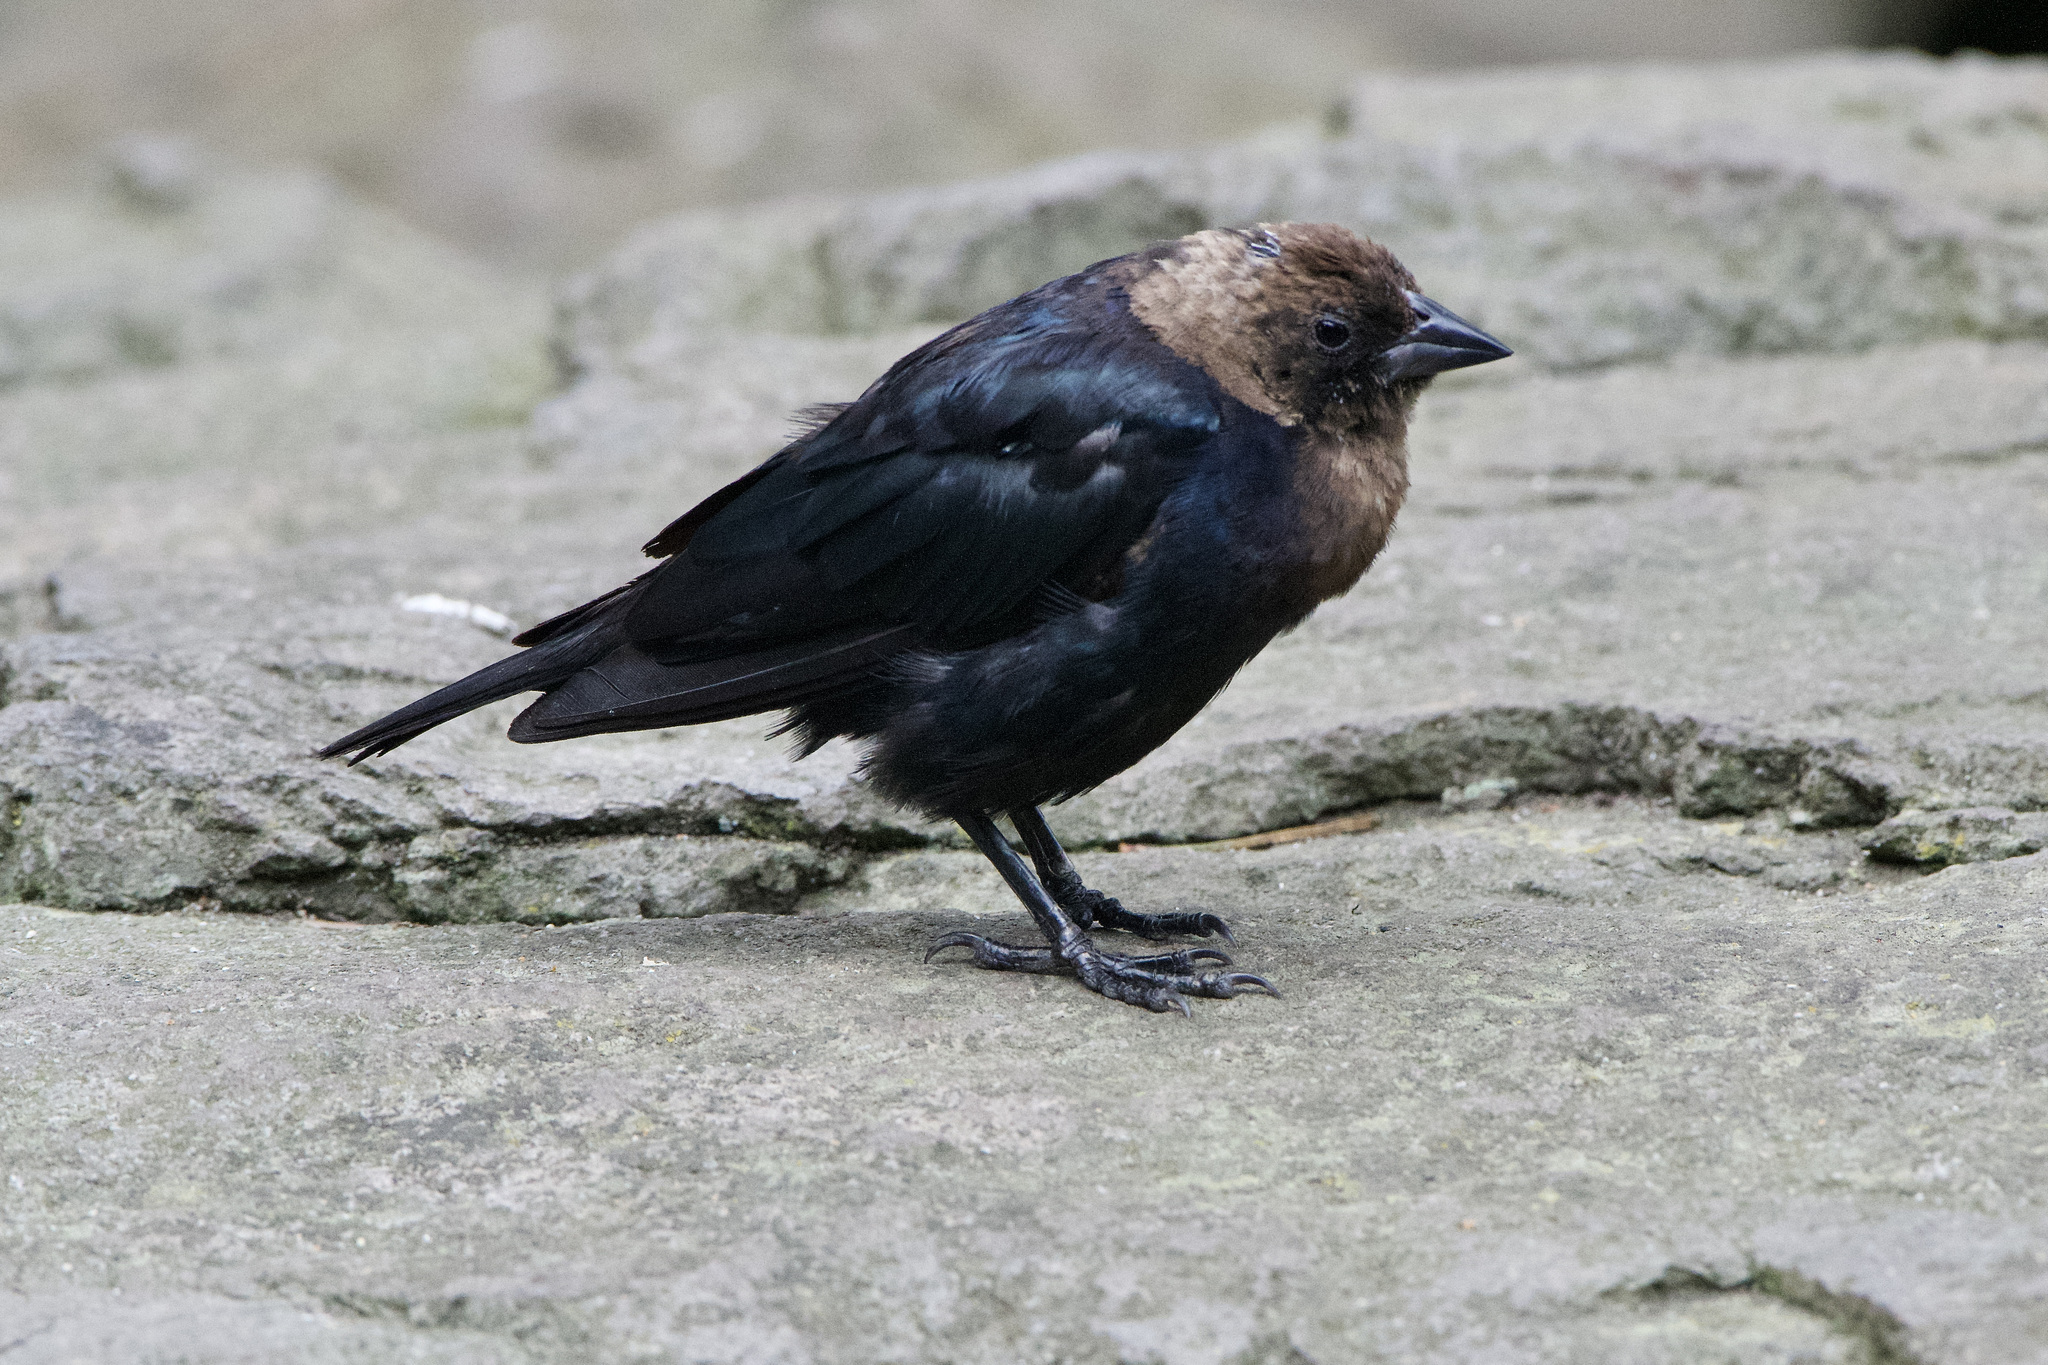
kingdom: Animalia
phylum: Chordata
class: Aves
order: Passeriformes
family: Icteridae
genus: Molothrus
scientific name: Molothrus ater
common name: Brown-headed cowbird
